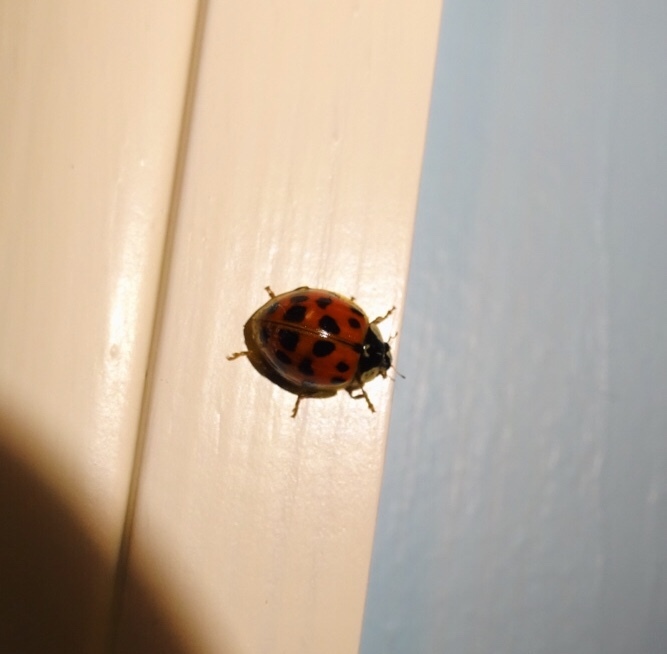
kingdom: Animalia
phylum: Arthropoda
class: Insecta
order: Coleoptera
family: Coccinellidae
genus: Harmonia
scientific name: Harmonia axyridis
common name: Harlequin ladybird
